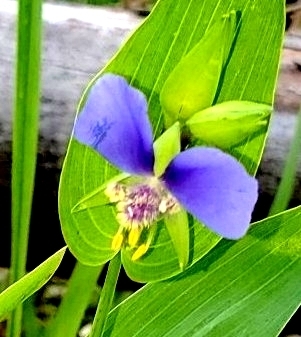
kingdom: Plantae
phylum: Tracheophyta
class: Liliopsida
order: Commelinales
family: Commelinaceae
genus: Tinantia
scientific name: Tinantia anomala
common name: False dayflower
